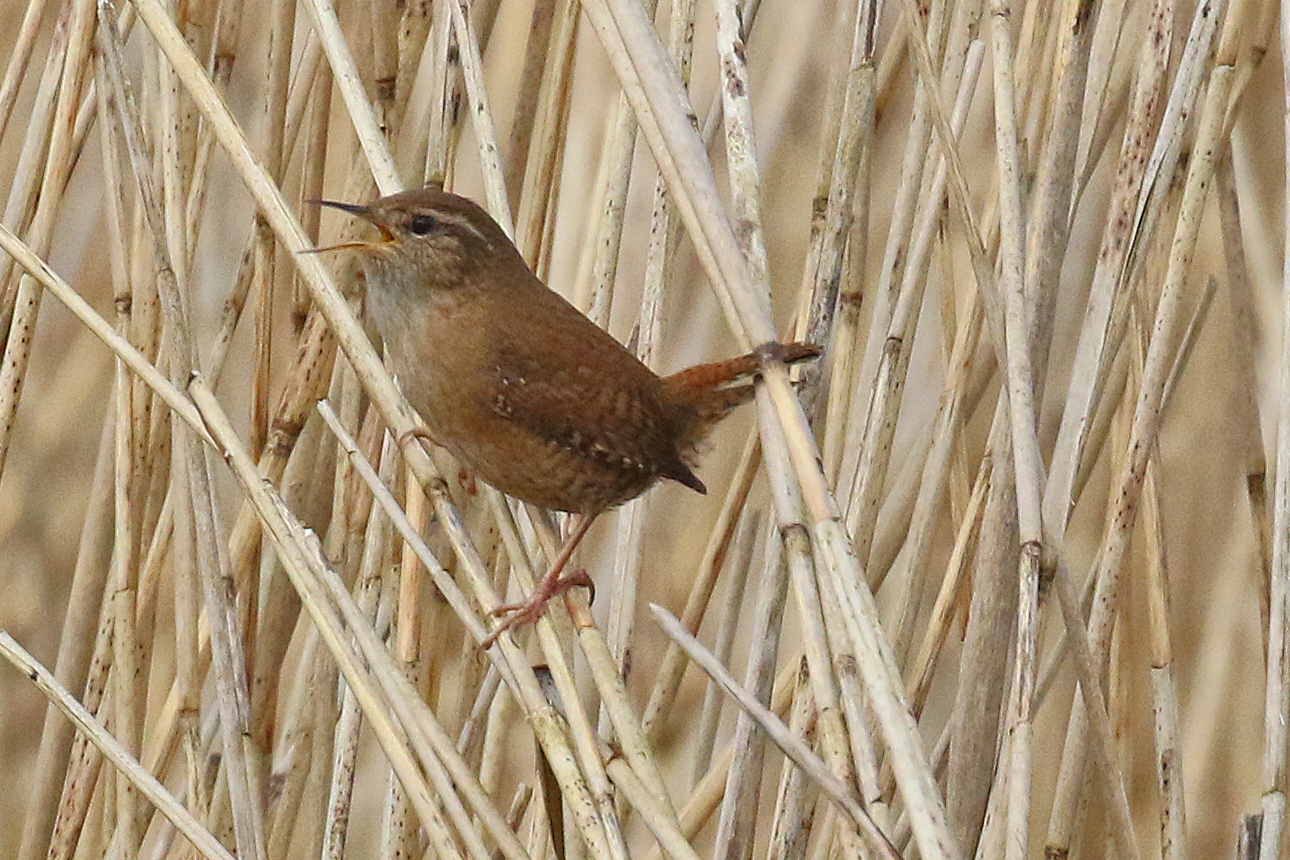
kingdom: Animalia
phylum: Chordata
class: Aves
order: Passeriformes
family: Troglodytidae
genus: Troglodytes
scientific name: Troglodytes troglodytes
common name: Eurasian wren
